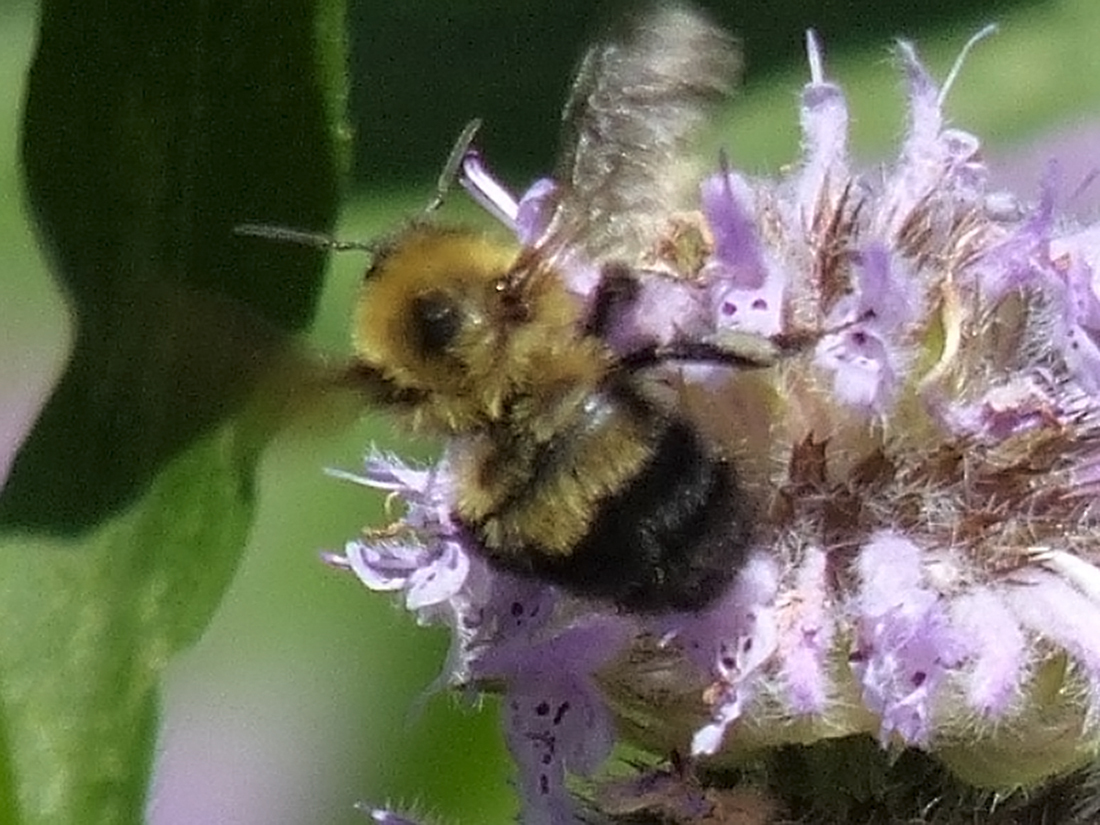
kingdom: Animalia
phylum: Arthropoda
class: Insecta
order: Hymenoptera
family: Apidae
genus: Bombus
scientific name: Bombus bimaculatus
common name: Two-spotted bumble bee
